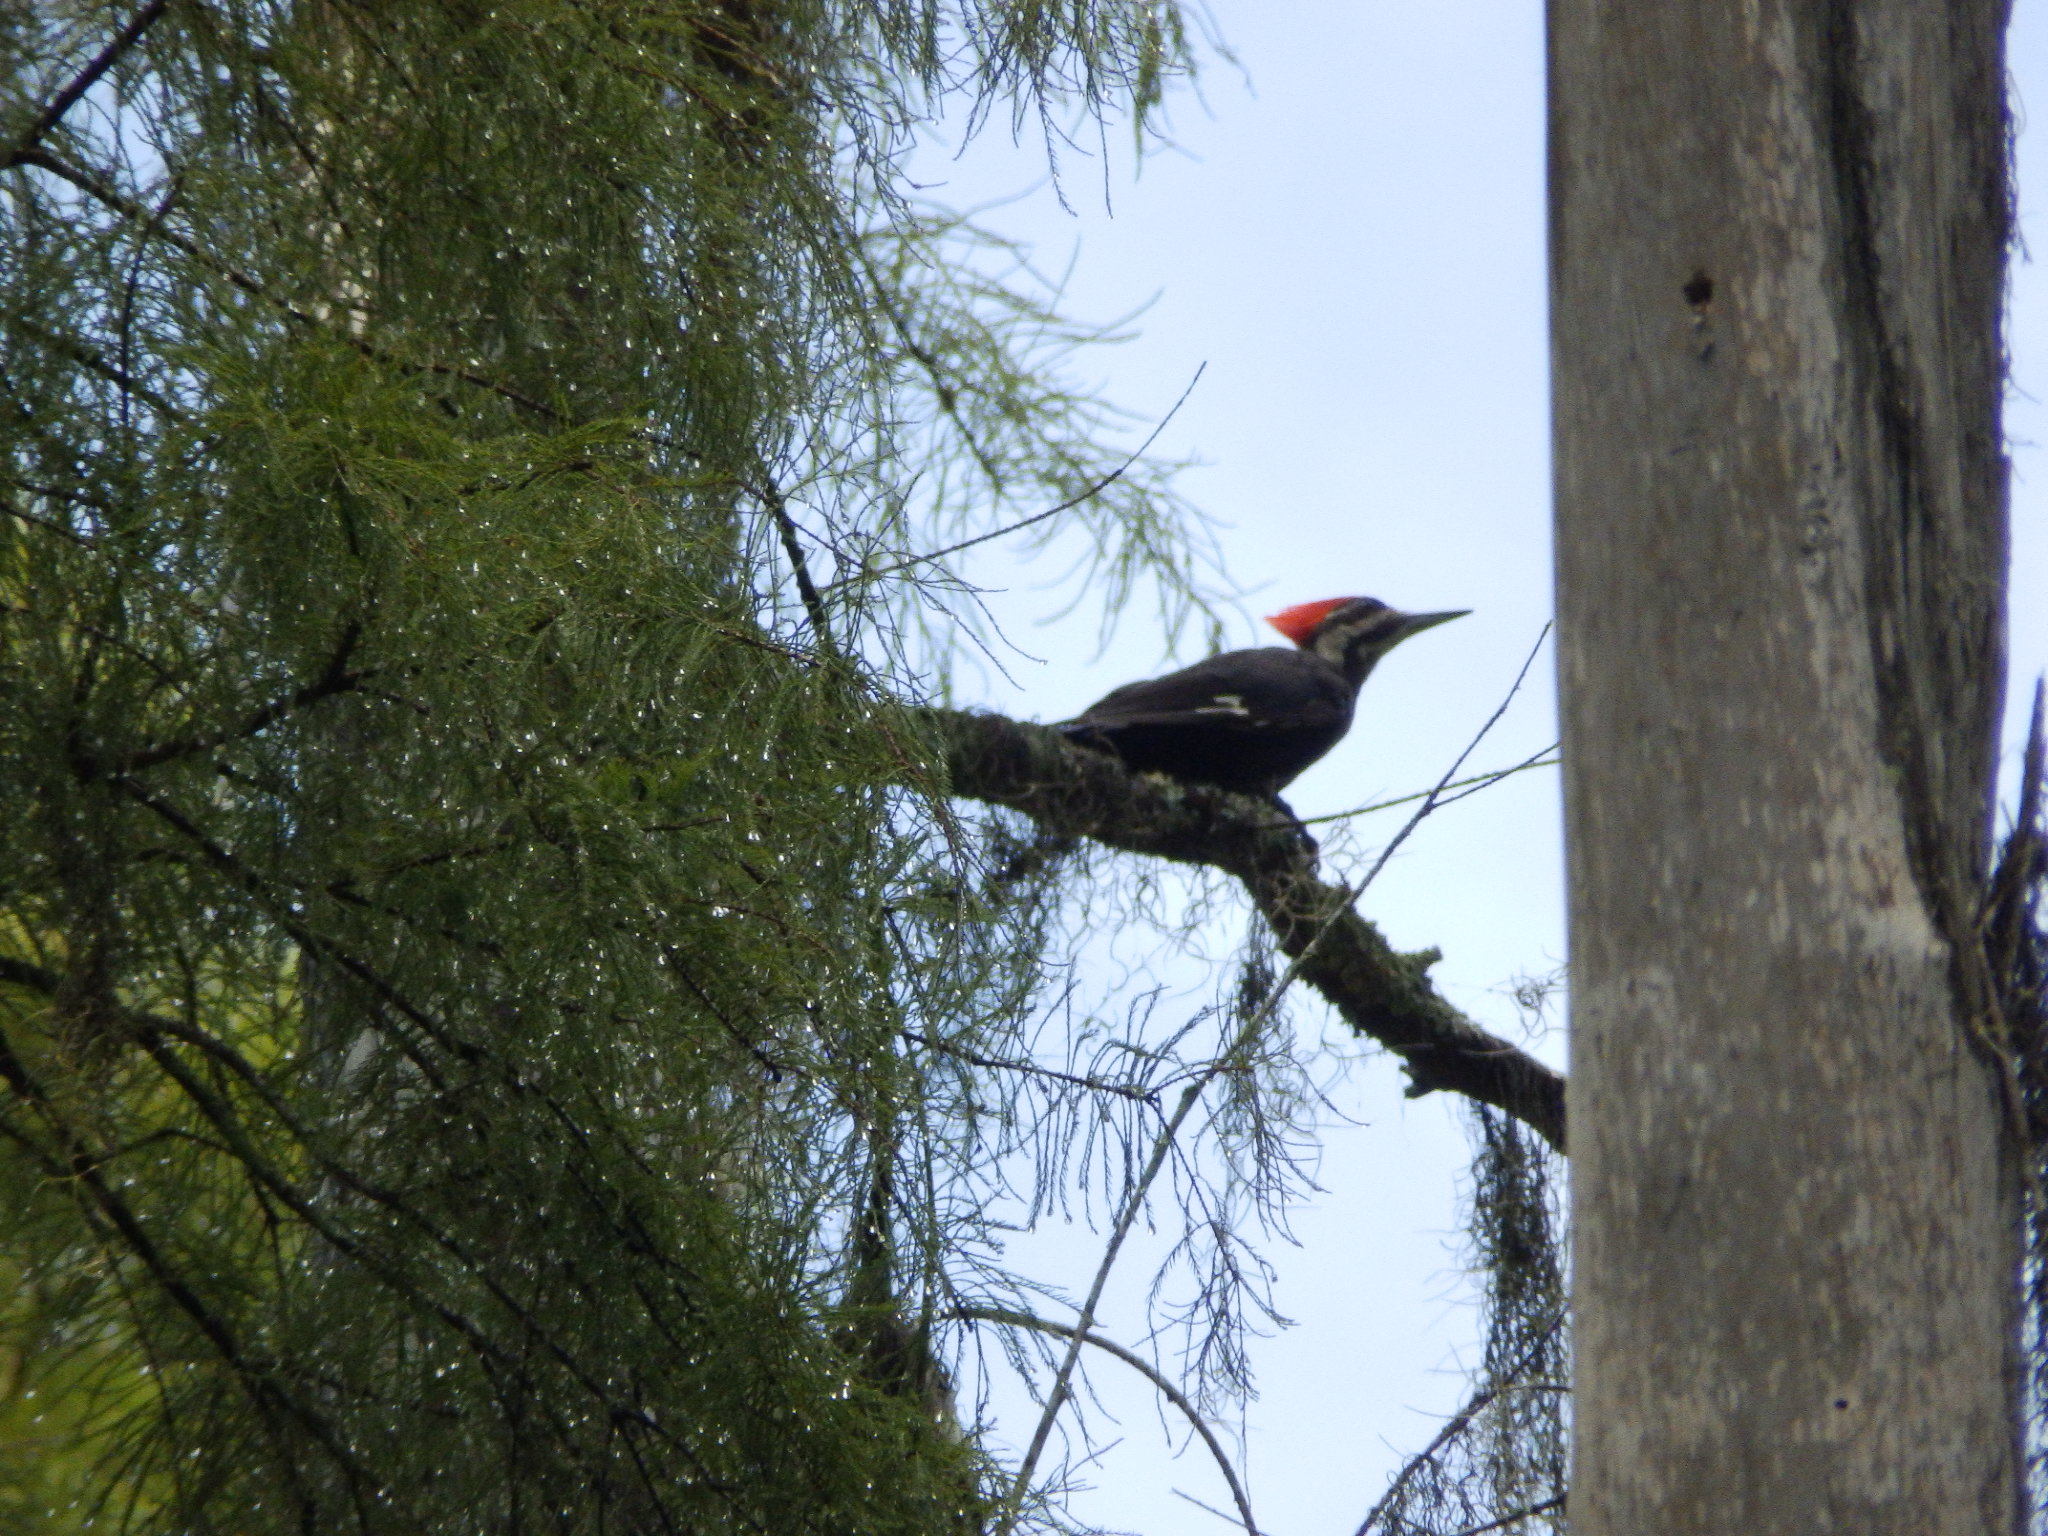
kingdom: Animalia
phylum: Chordata
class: Aves
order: Piciformes
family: Picidae
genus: Dryocopus
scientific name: Dryocopus pileatus
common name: Pileated woodpecker
